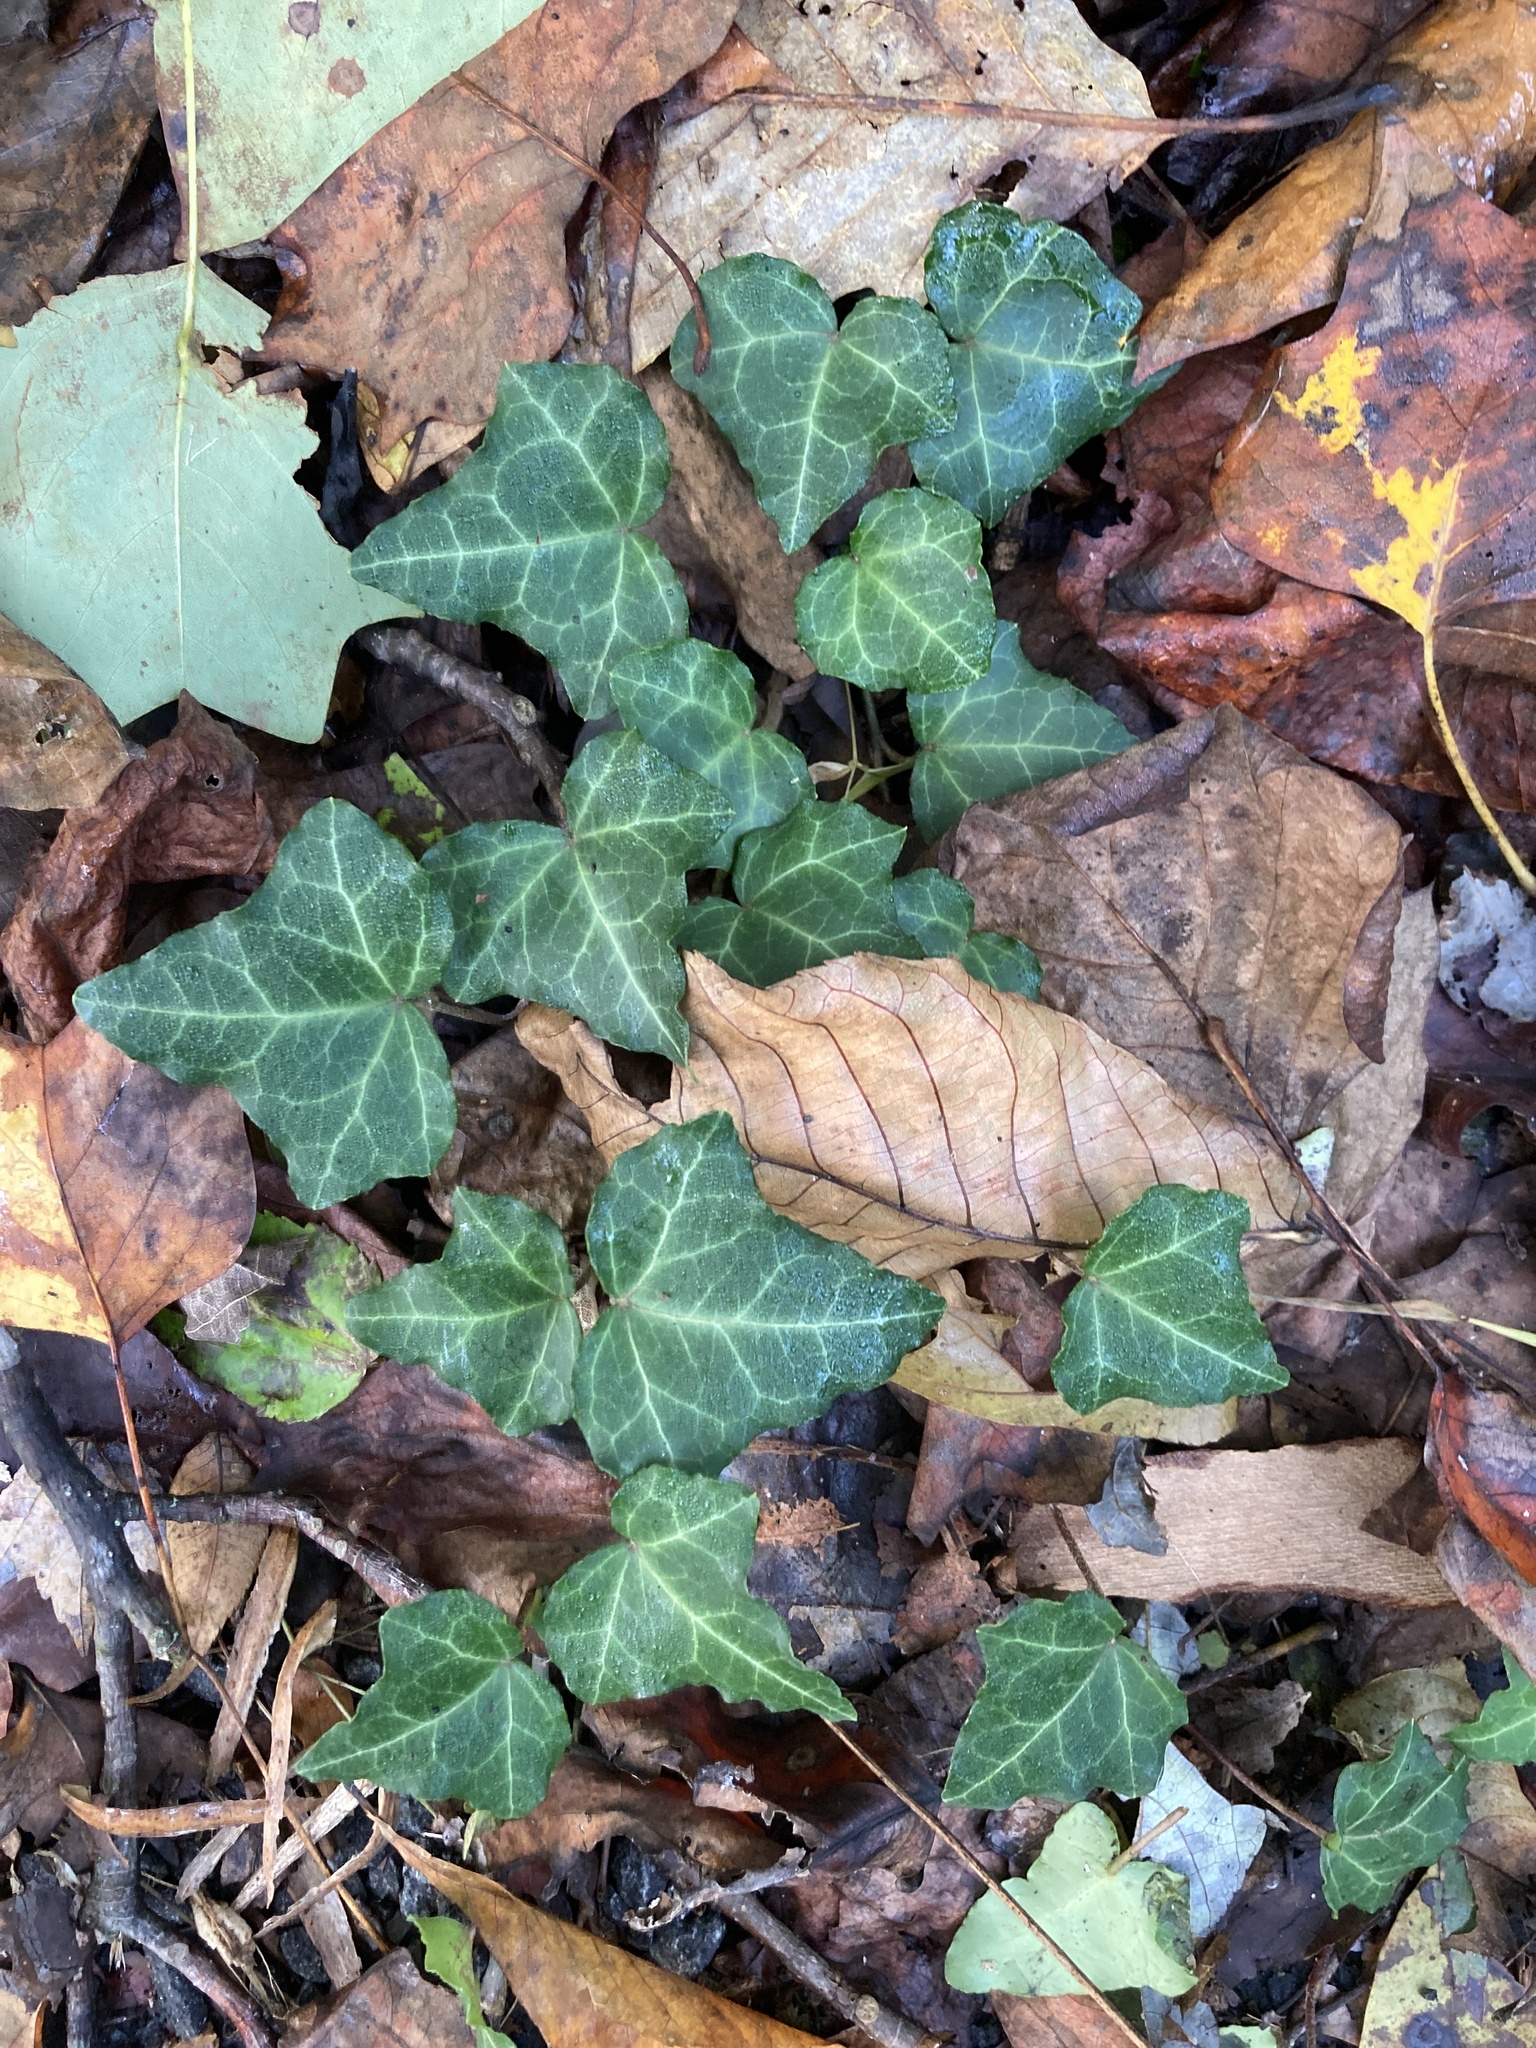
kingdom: Plantae
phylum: Tracheophyta
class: Magnoliopsida
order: Apiales
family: Araliaceae
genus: Hedera
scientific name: Hedera helix
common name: Ivy
